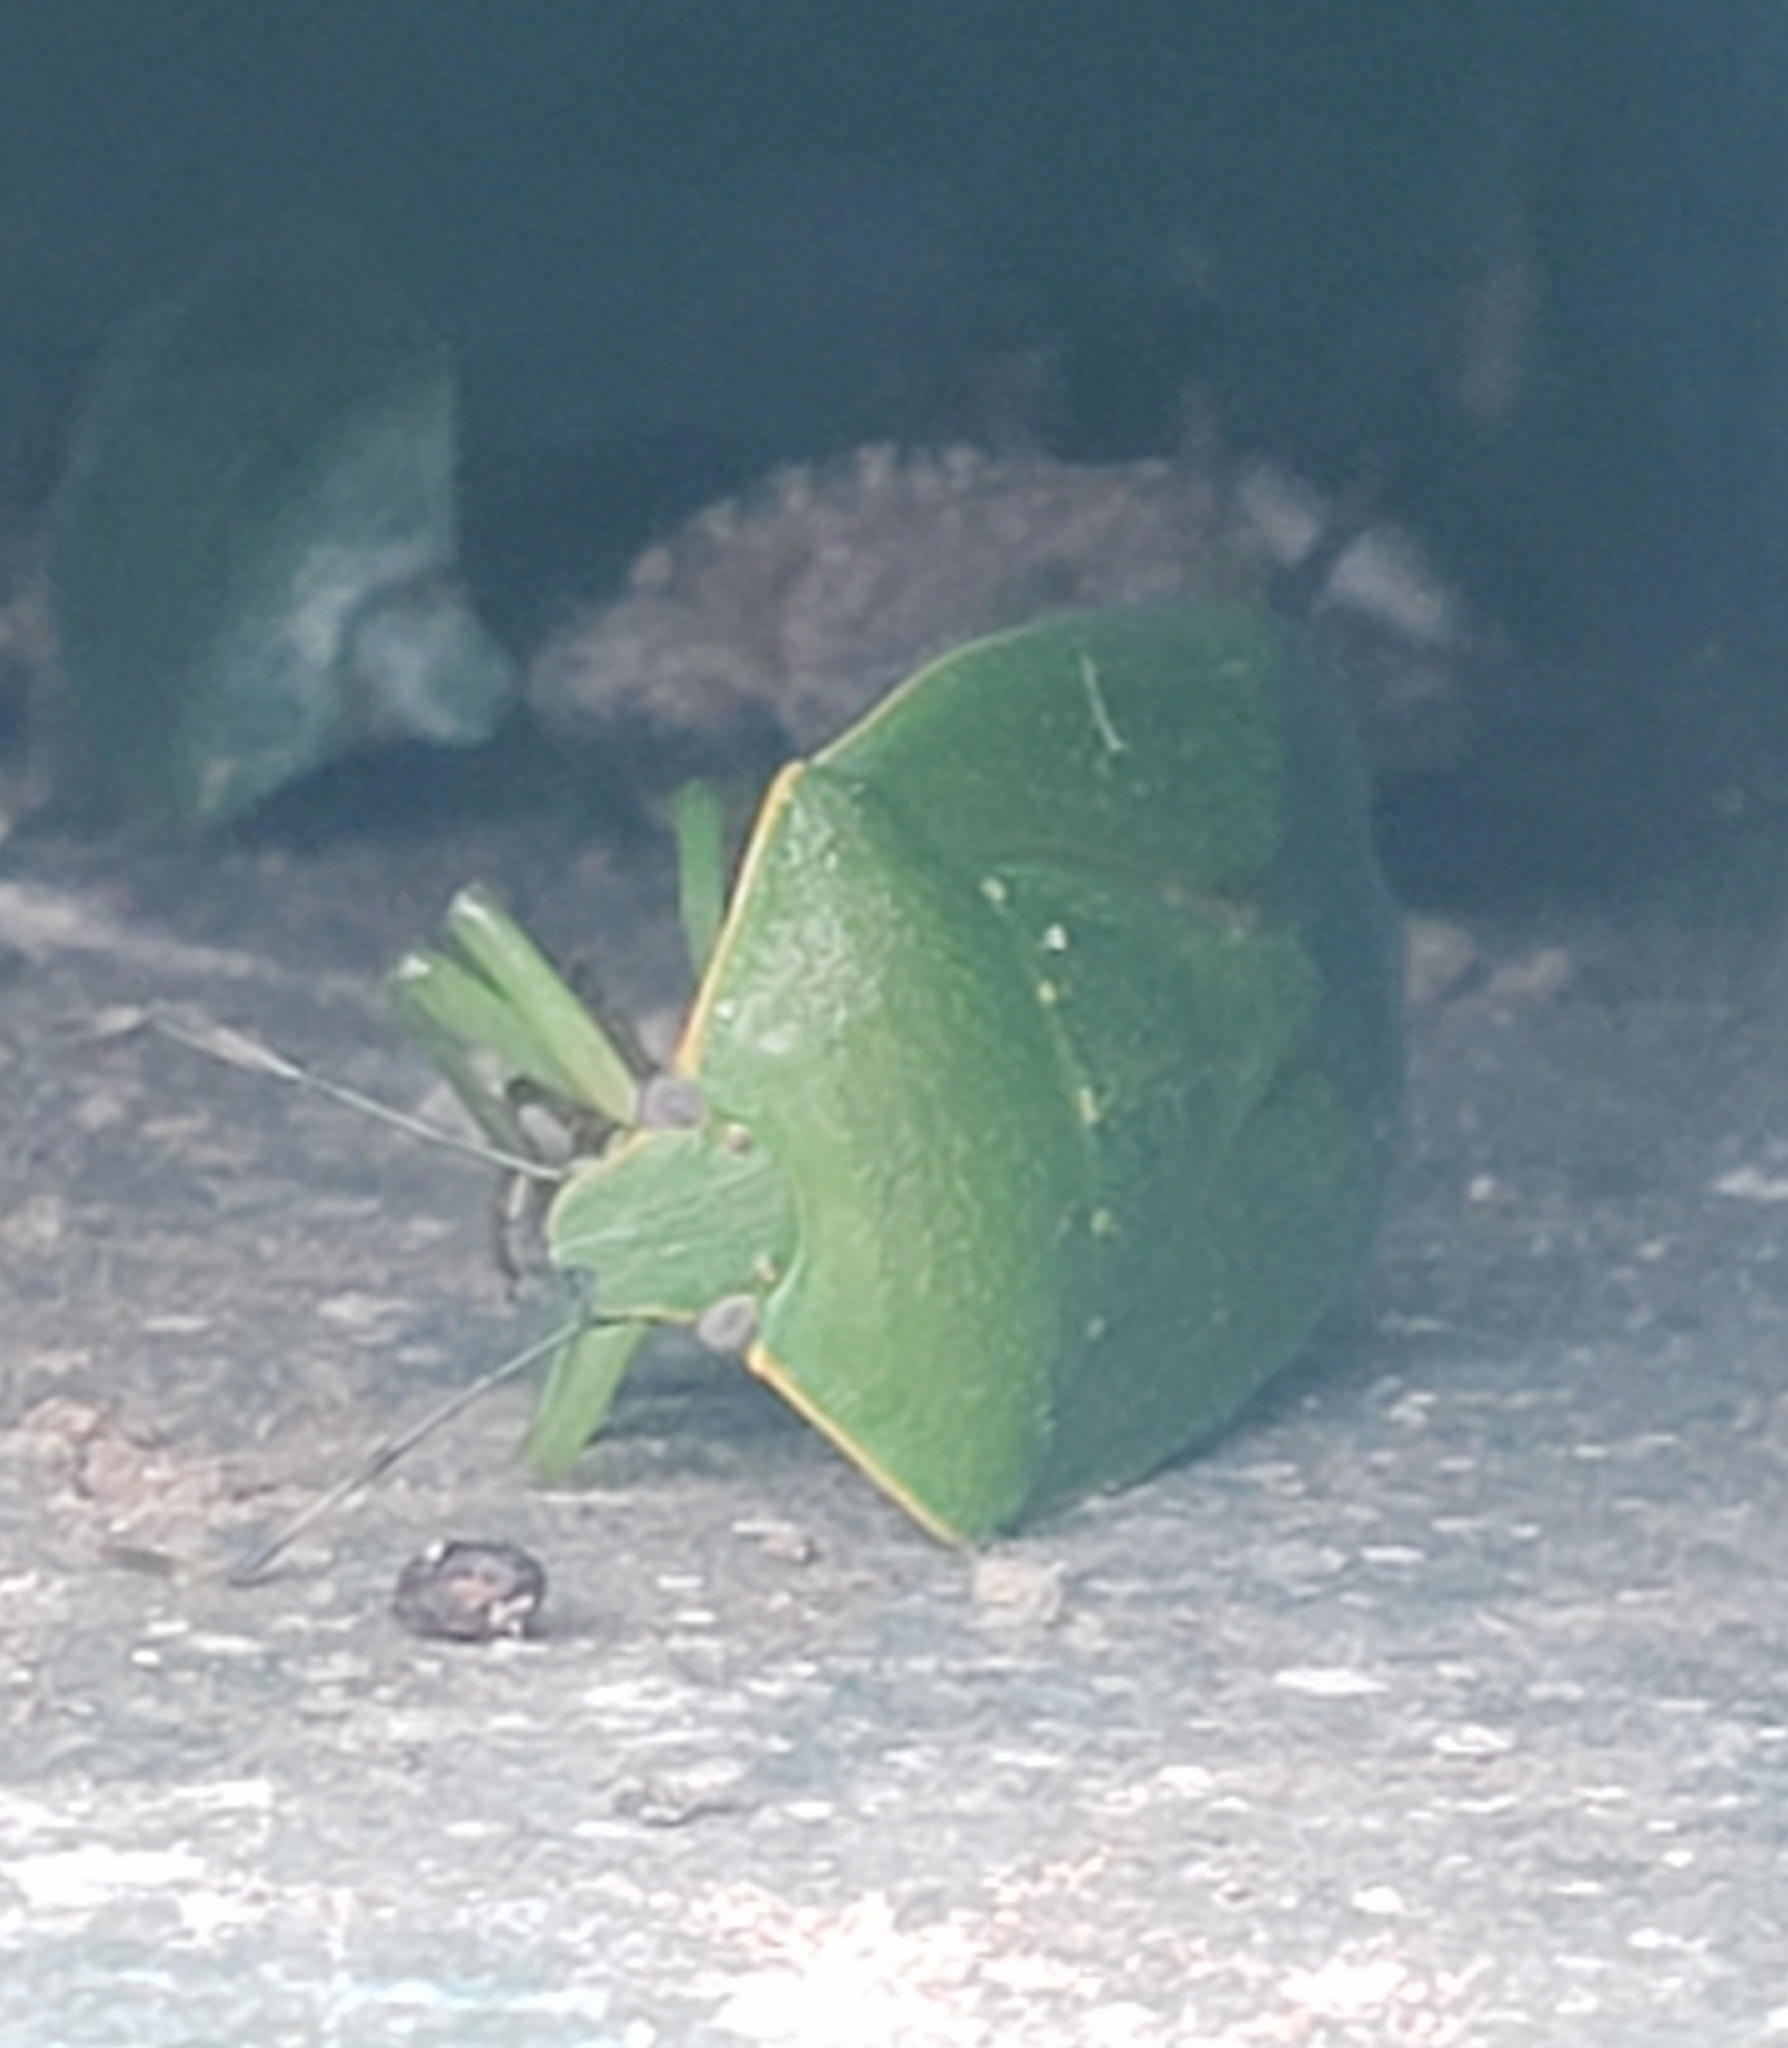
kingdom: Animalia
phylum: Arthropoda
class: Insecta
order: Hemiptera
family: Pentatomidae
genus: Chinavia
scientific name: Chinavia hilaris
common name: Green stink bug
